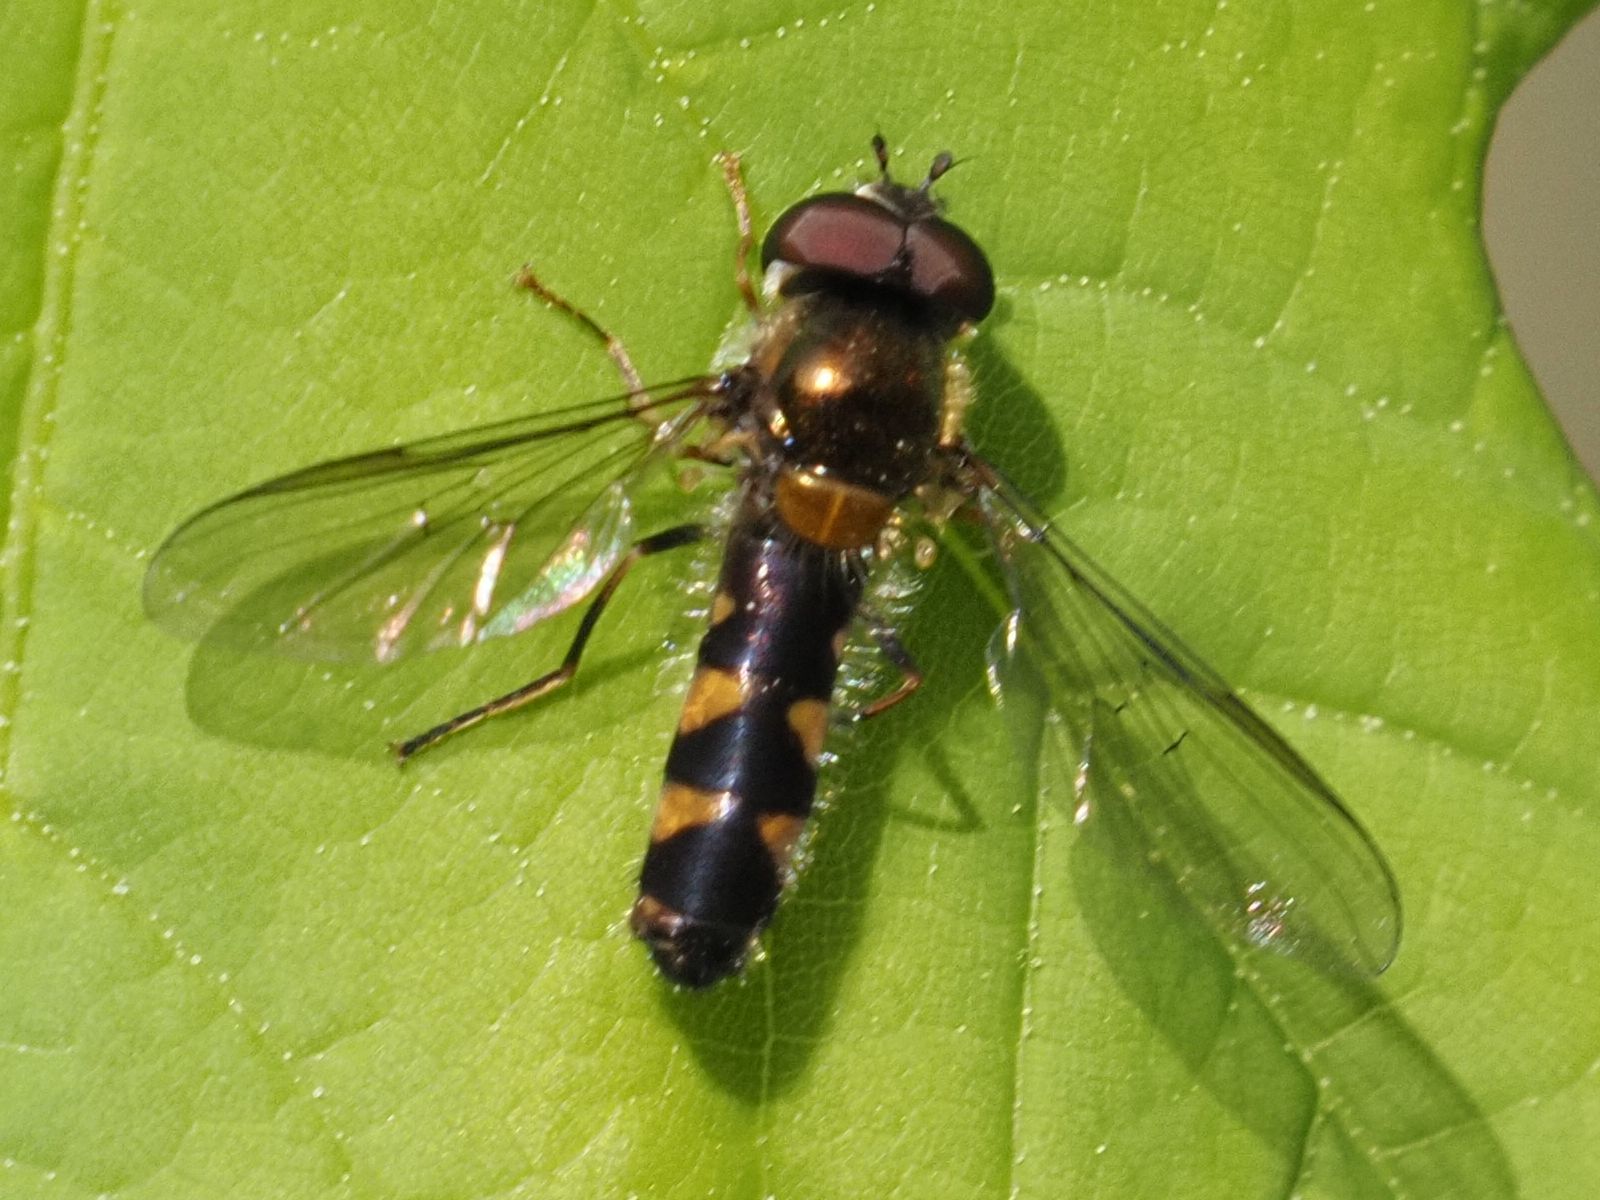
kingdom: Animalia
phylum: Arthropoda
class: Insecta
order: Diptera
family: Syrphidae
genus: Meligramma
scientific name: Meligramma triangulifera
